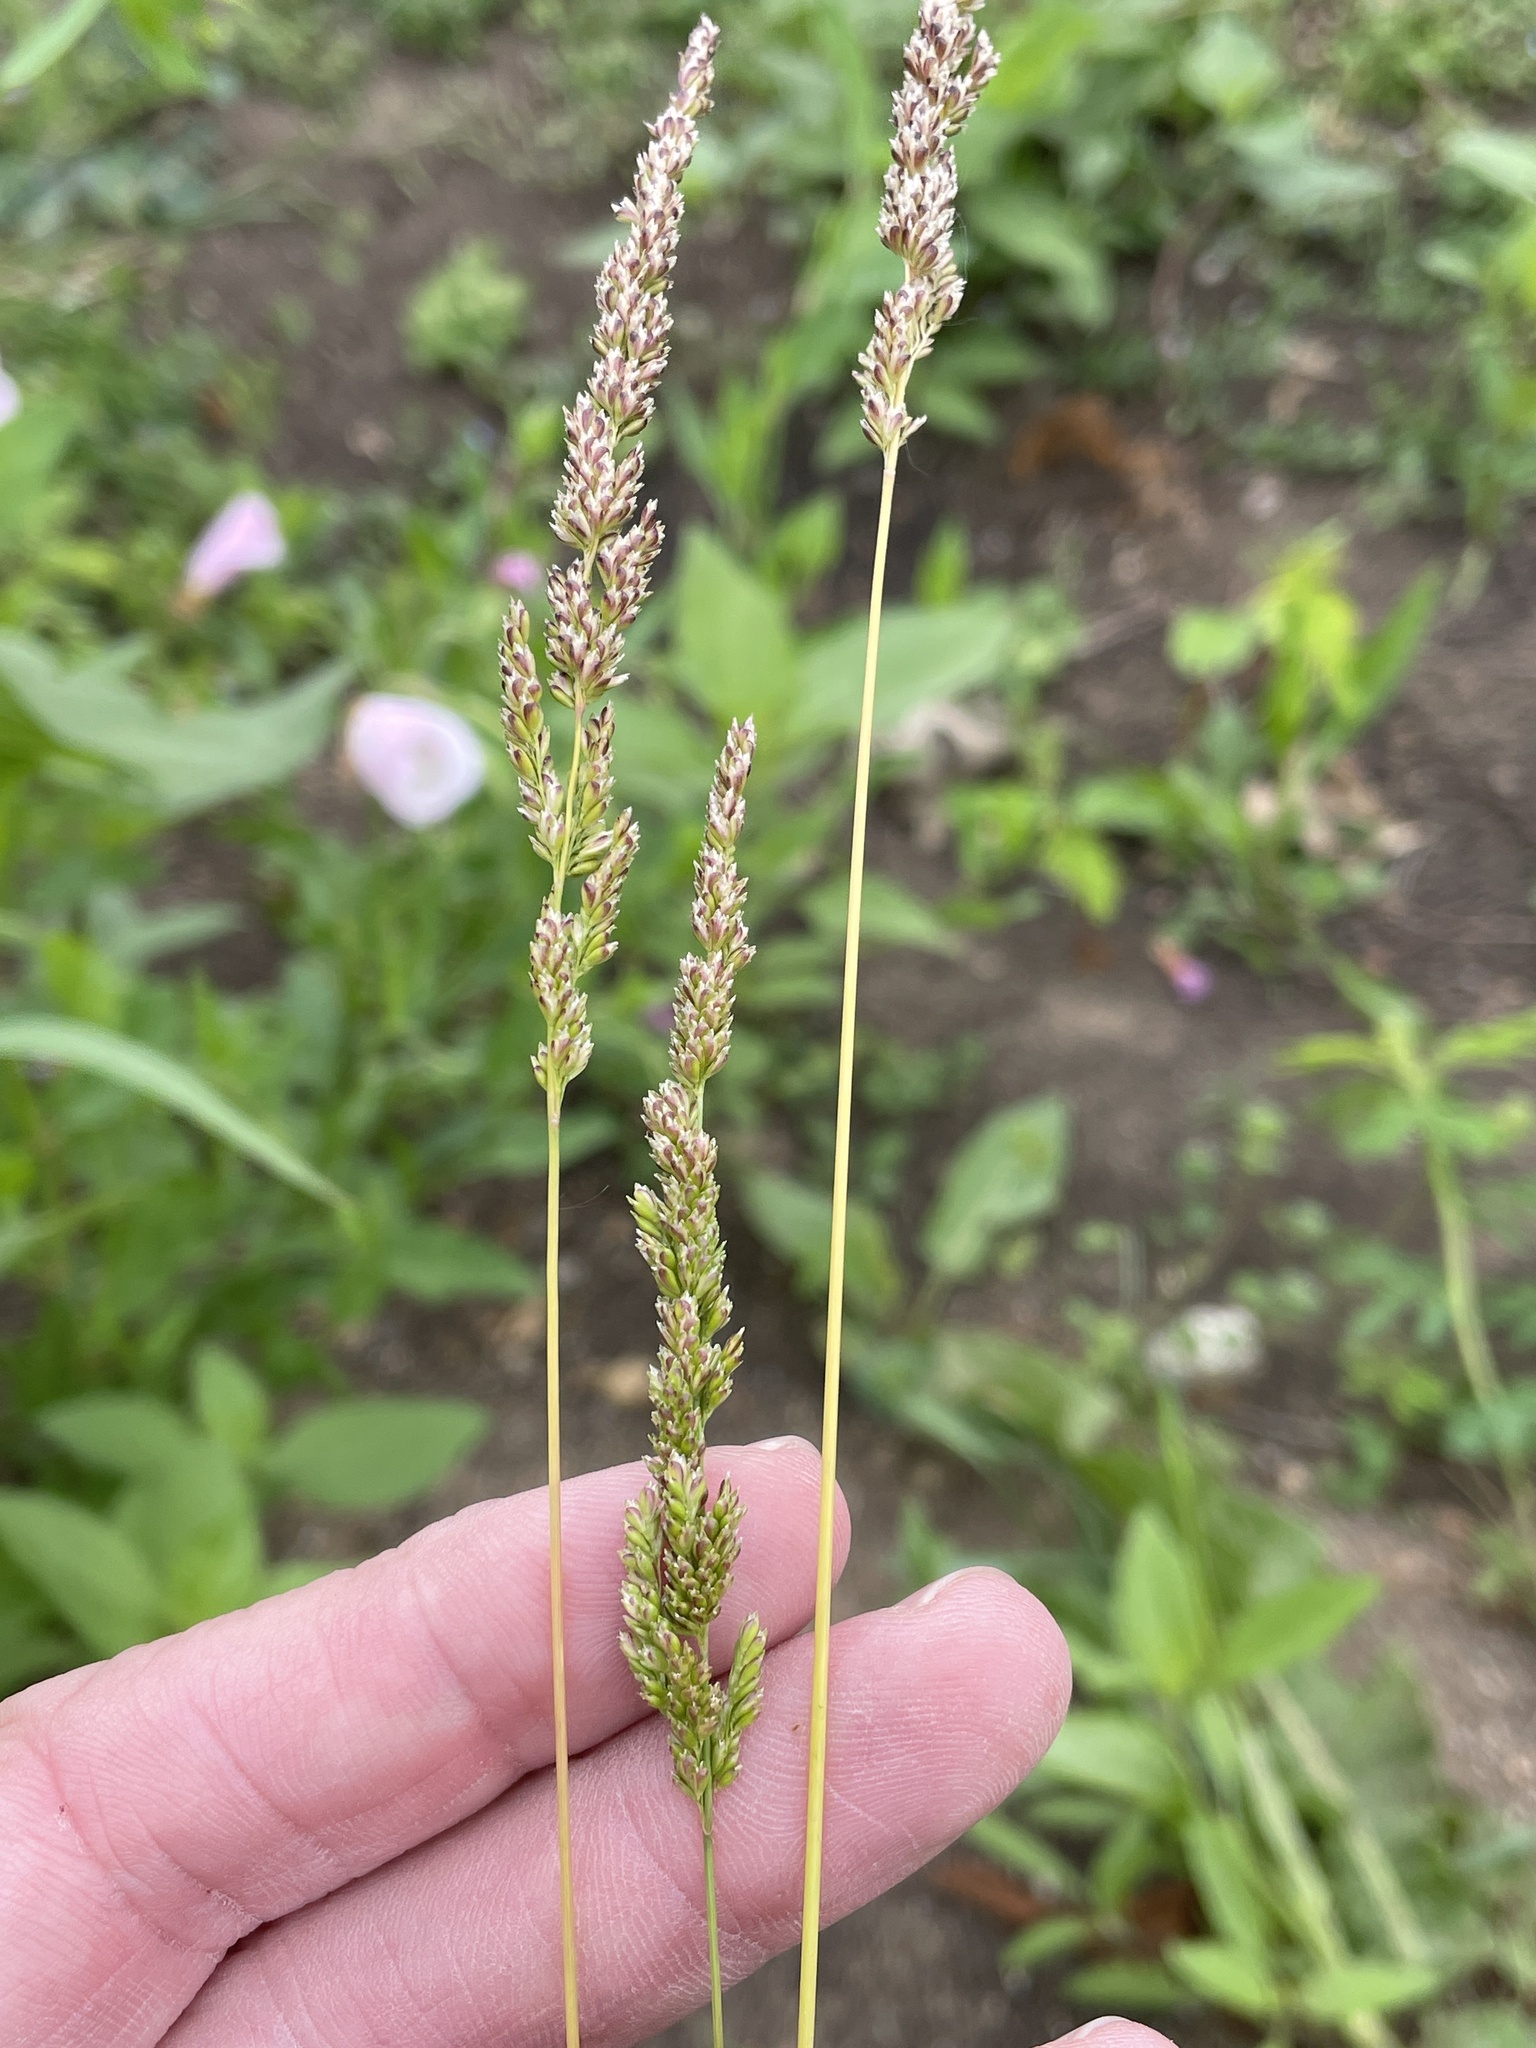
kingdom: Plantae
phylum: Tracheophyta
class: Liliopsida
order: Poales
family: Poaceae
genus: Sphenopholis
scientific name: Sphenopholis obtusata
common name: Prairie grass
